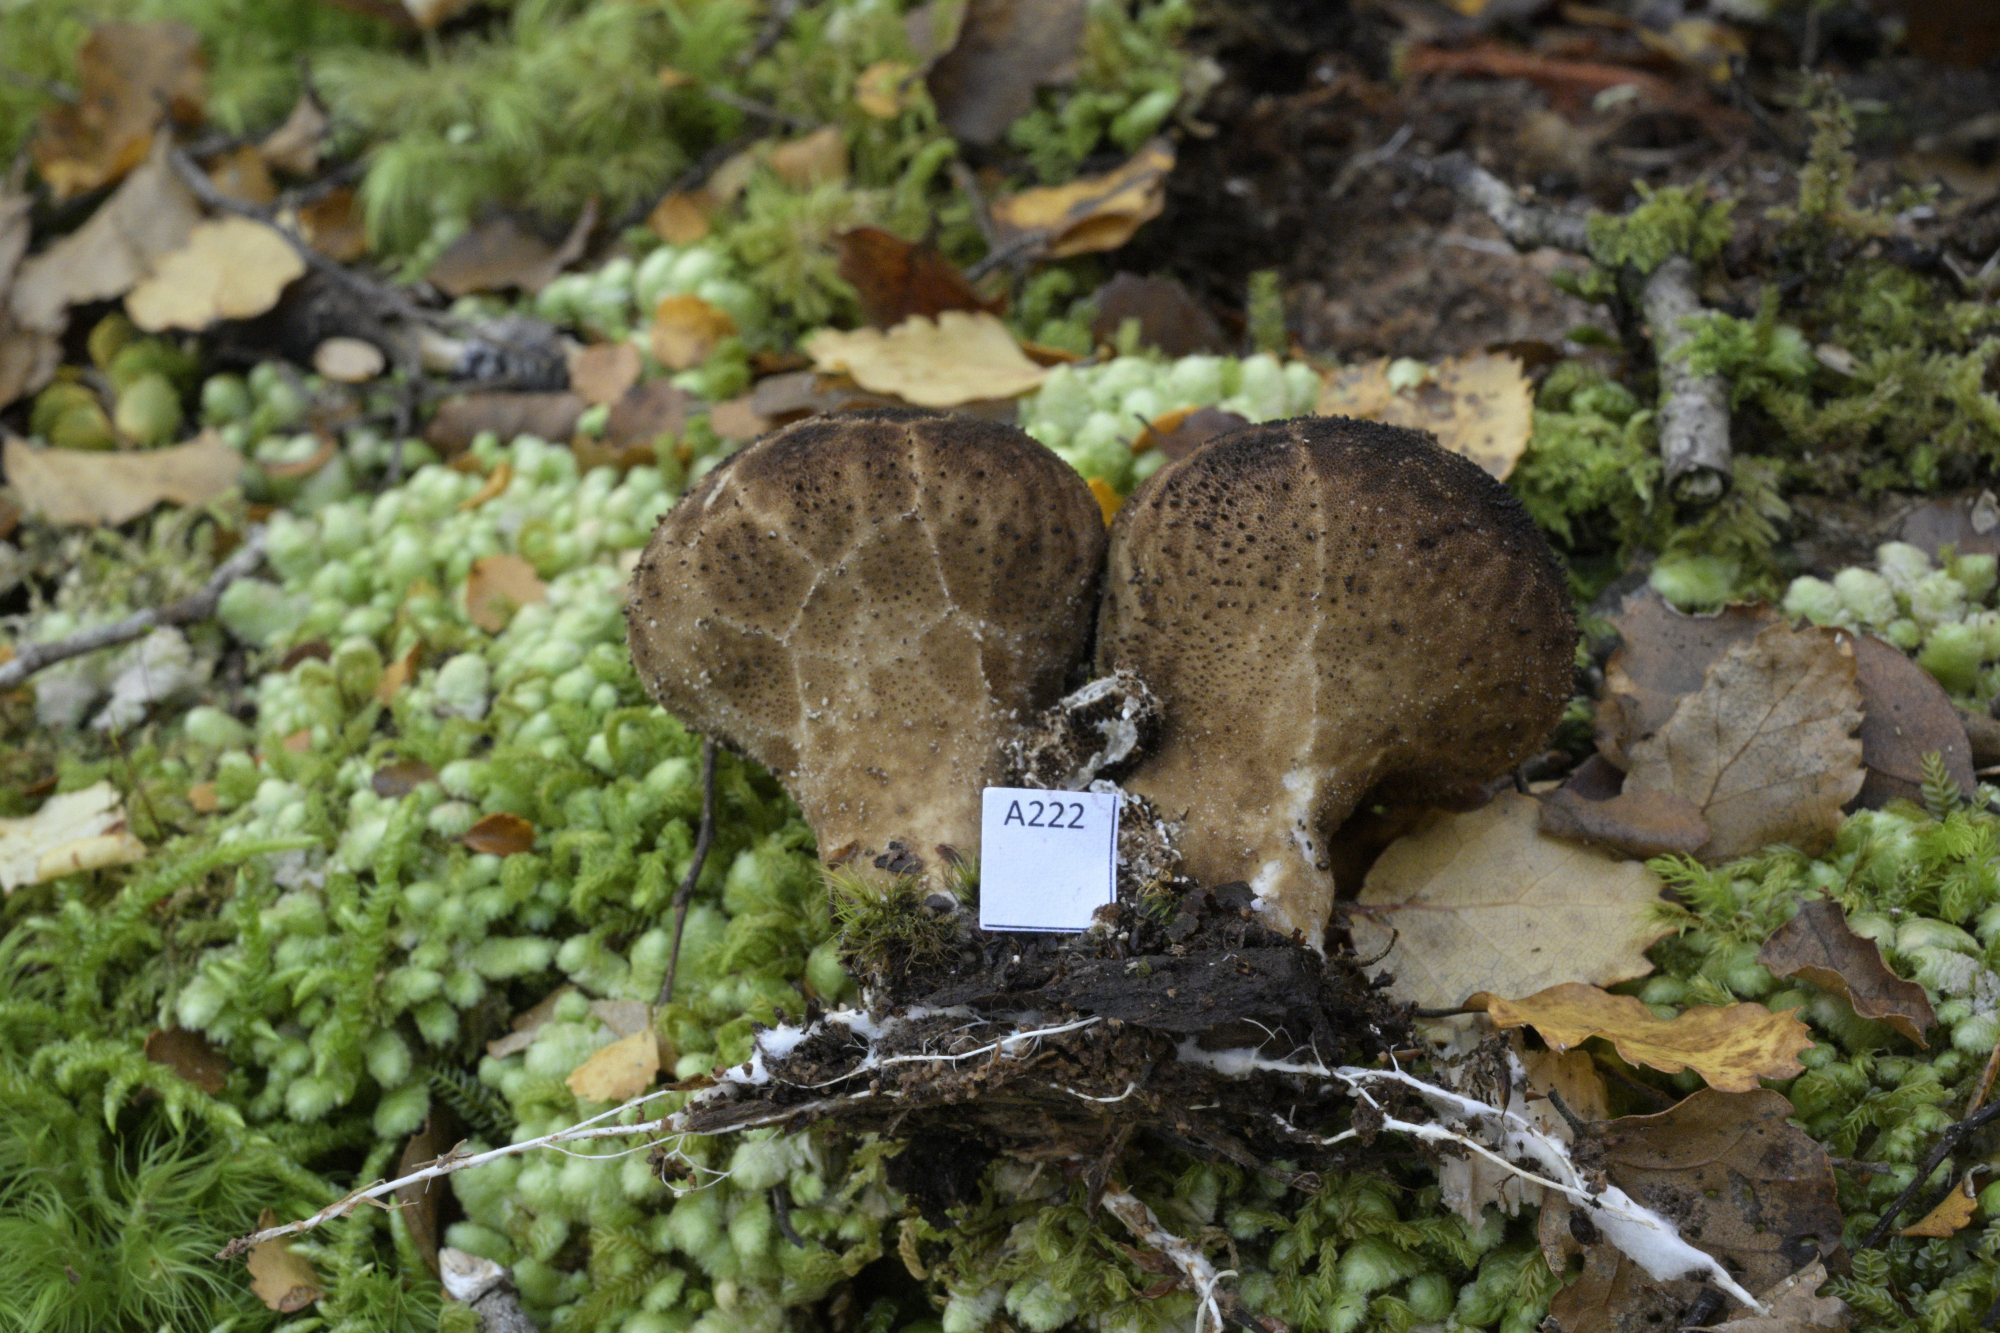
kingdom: Fungi
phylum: Basidiomycota
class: Agaricomycetes
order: Agaricales
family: Lycoperdaceae
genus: Lycoperdon
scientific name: Lycoperdon
